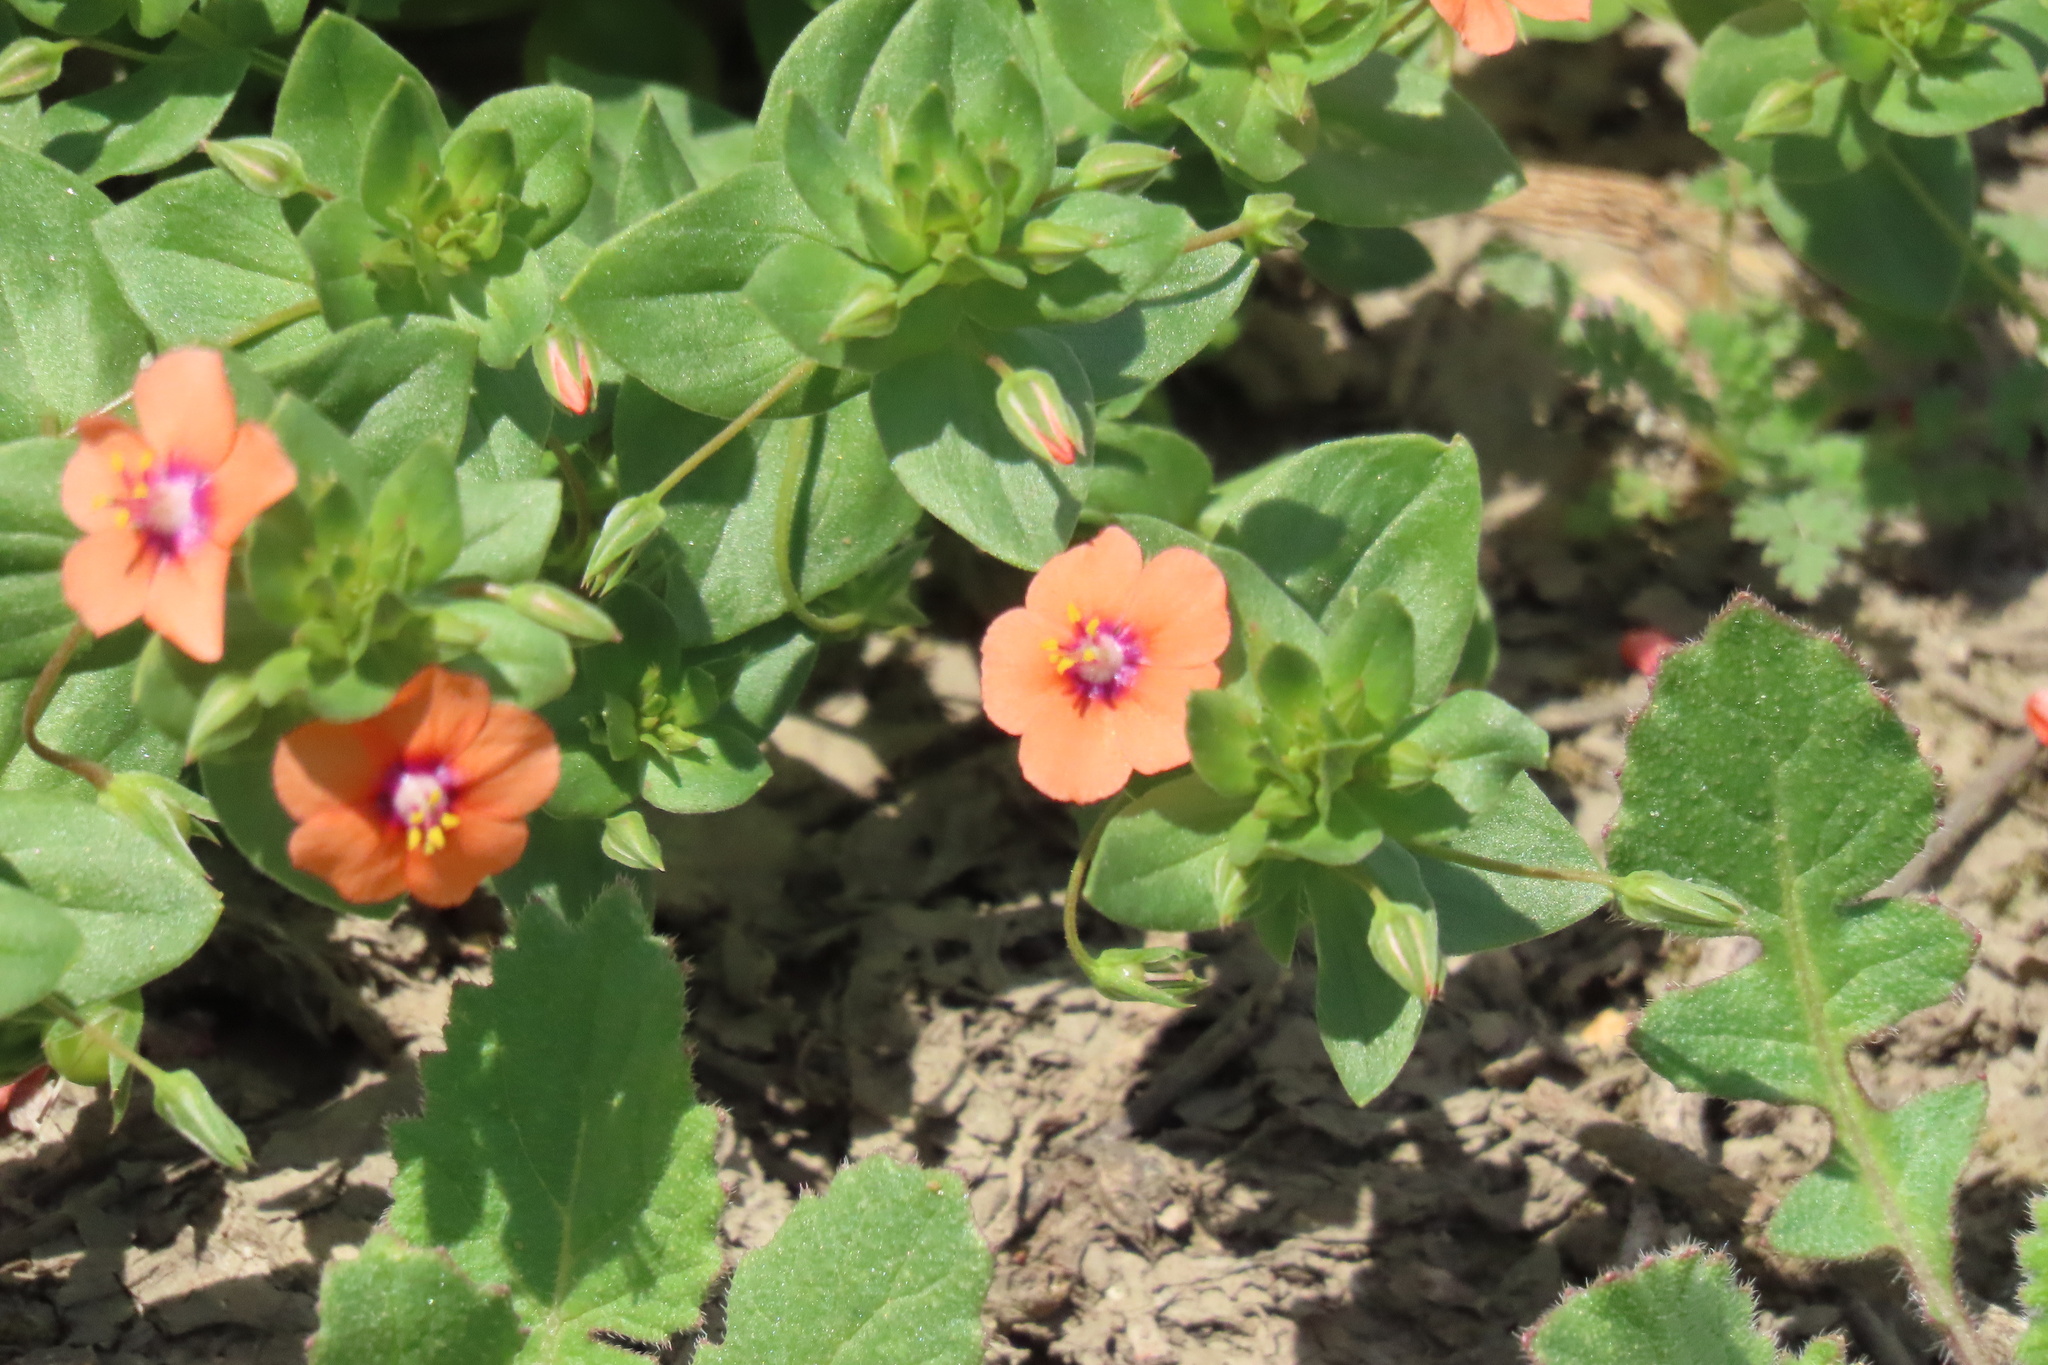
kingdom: Plantae
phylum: Tracheophyta
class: Magnoliopsida
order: Ericales
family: Primulaceae
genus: Lysimachia
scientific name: Lysimachia arvensis
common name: Scarlet pimpernel
